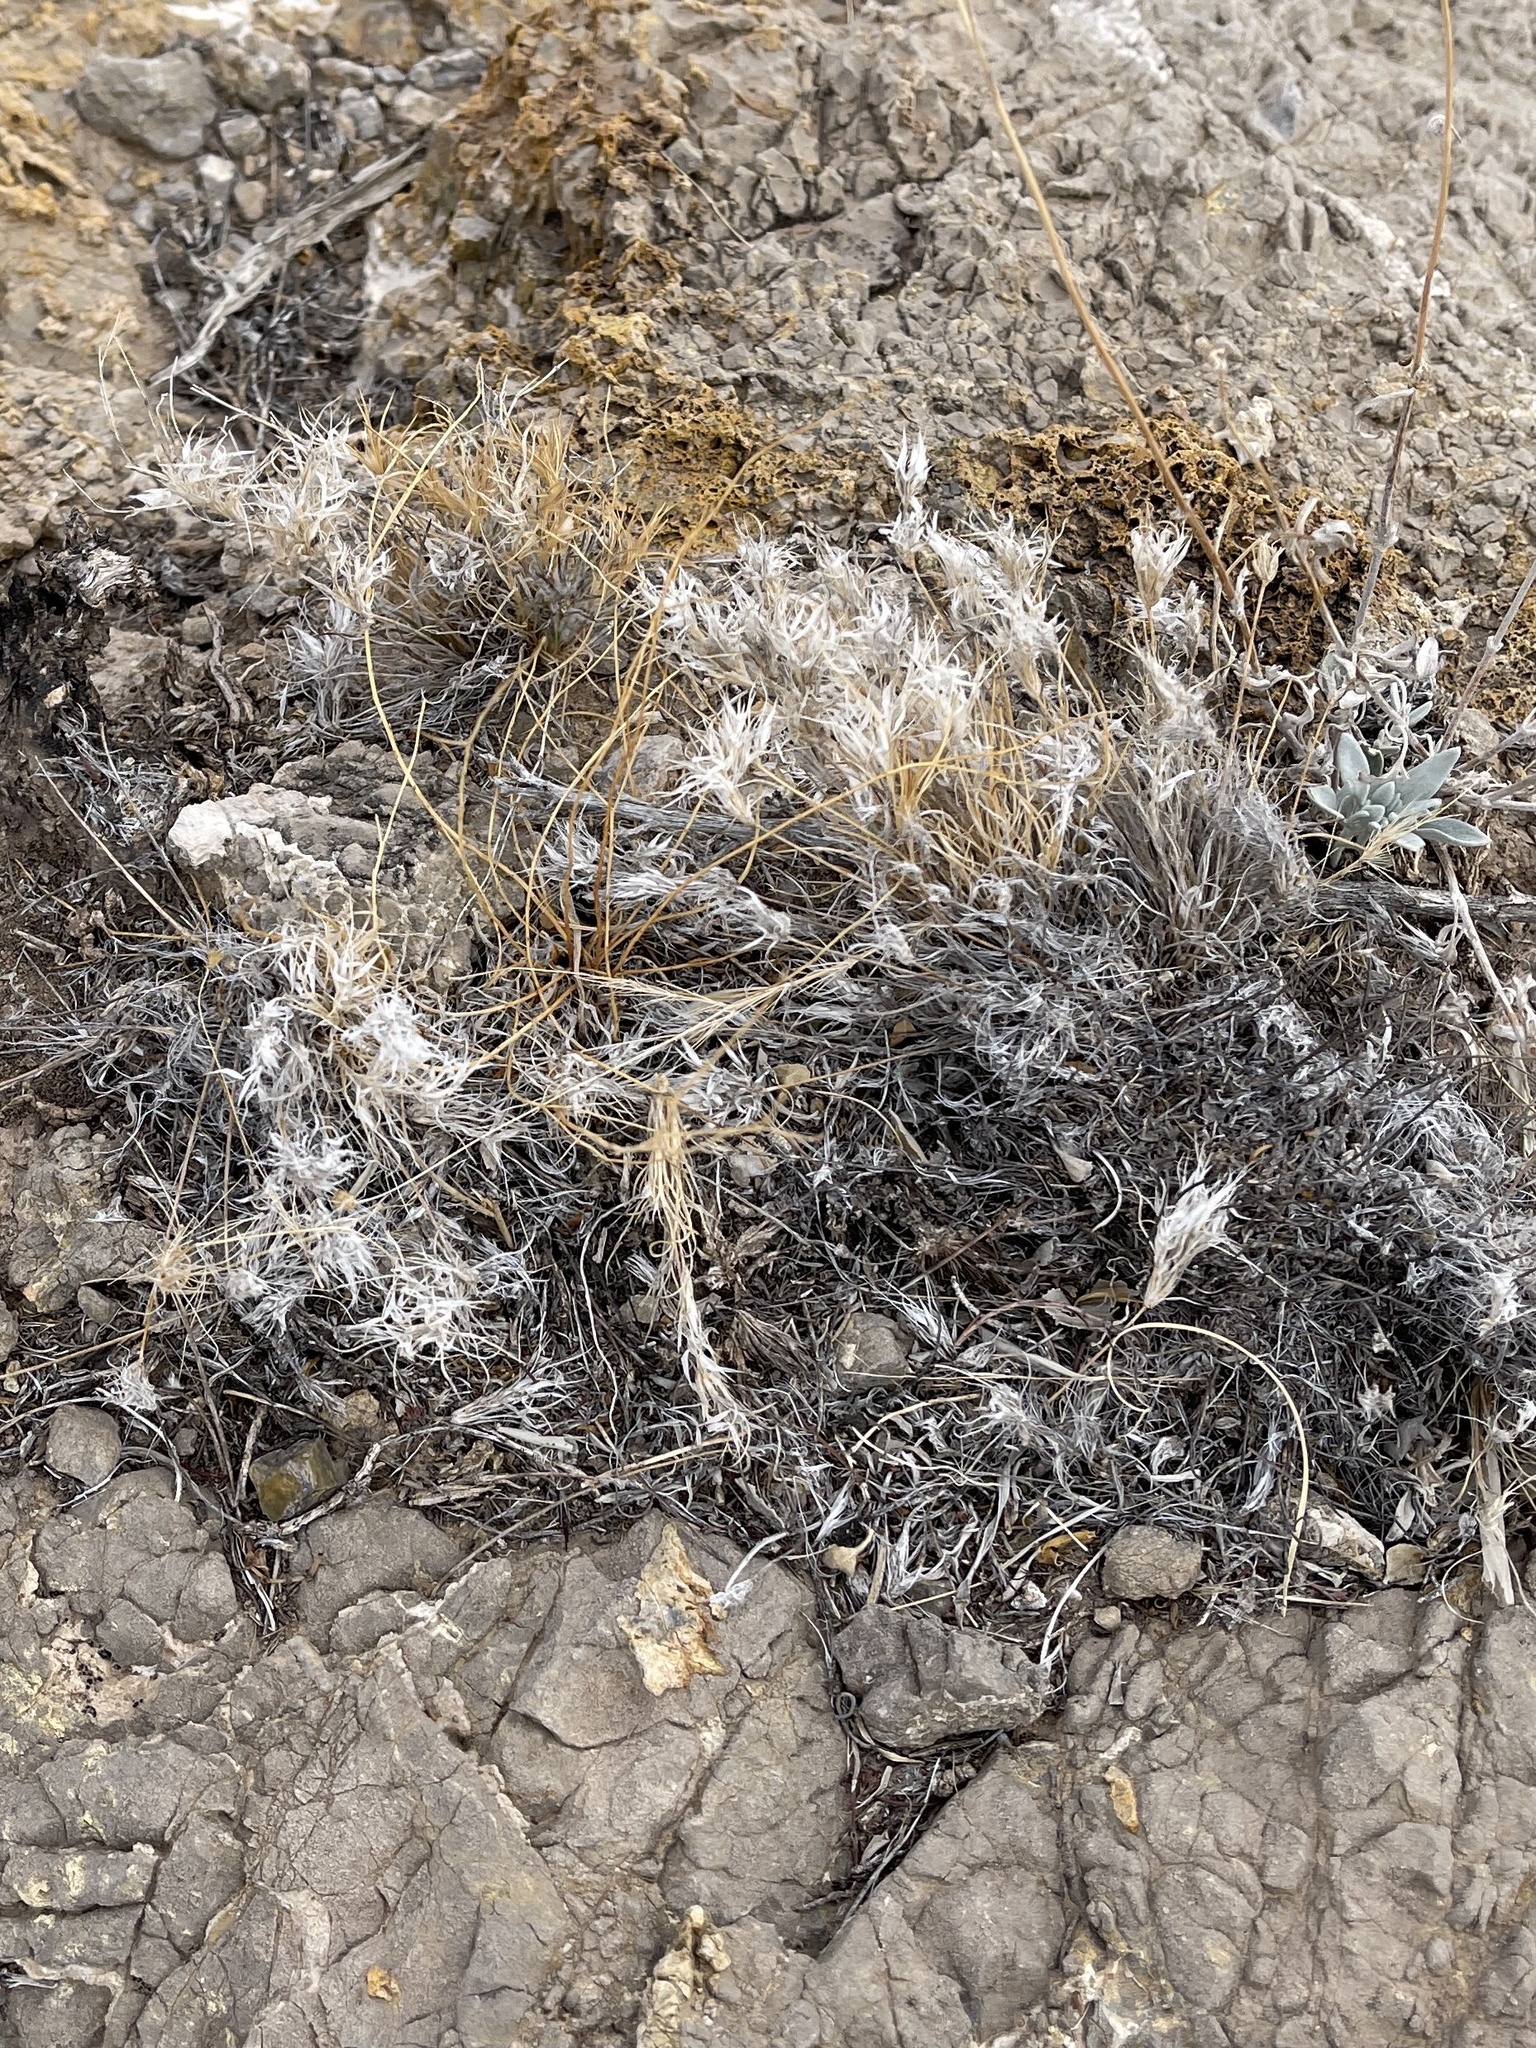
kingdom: Plantae
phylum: Tracheophyta
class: Liliopsida
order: Poales
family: Poaceae
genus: Dasyochloa
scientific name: Dasyochloa pulchella
